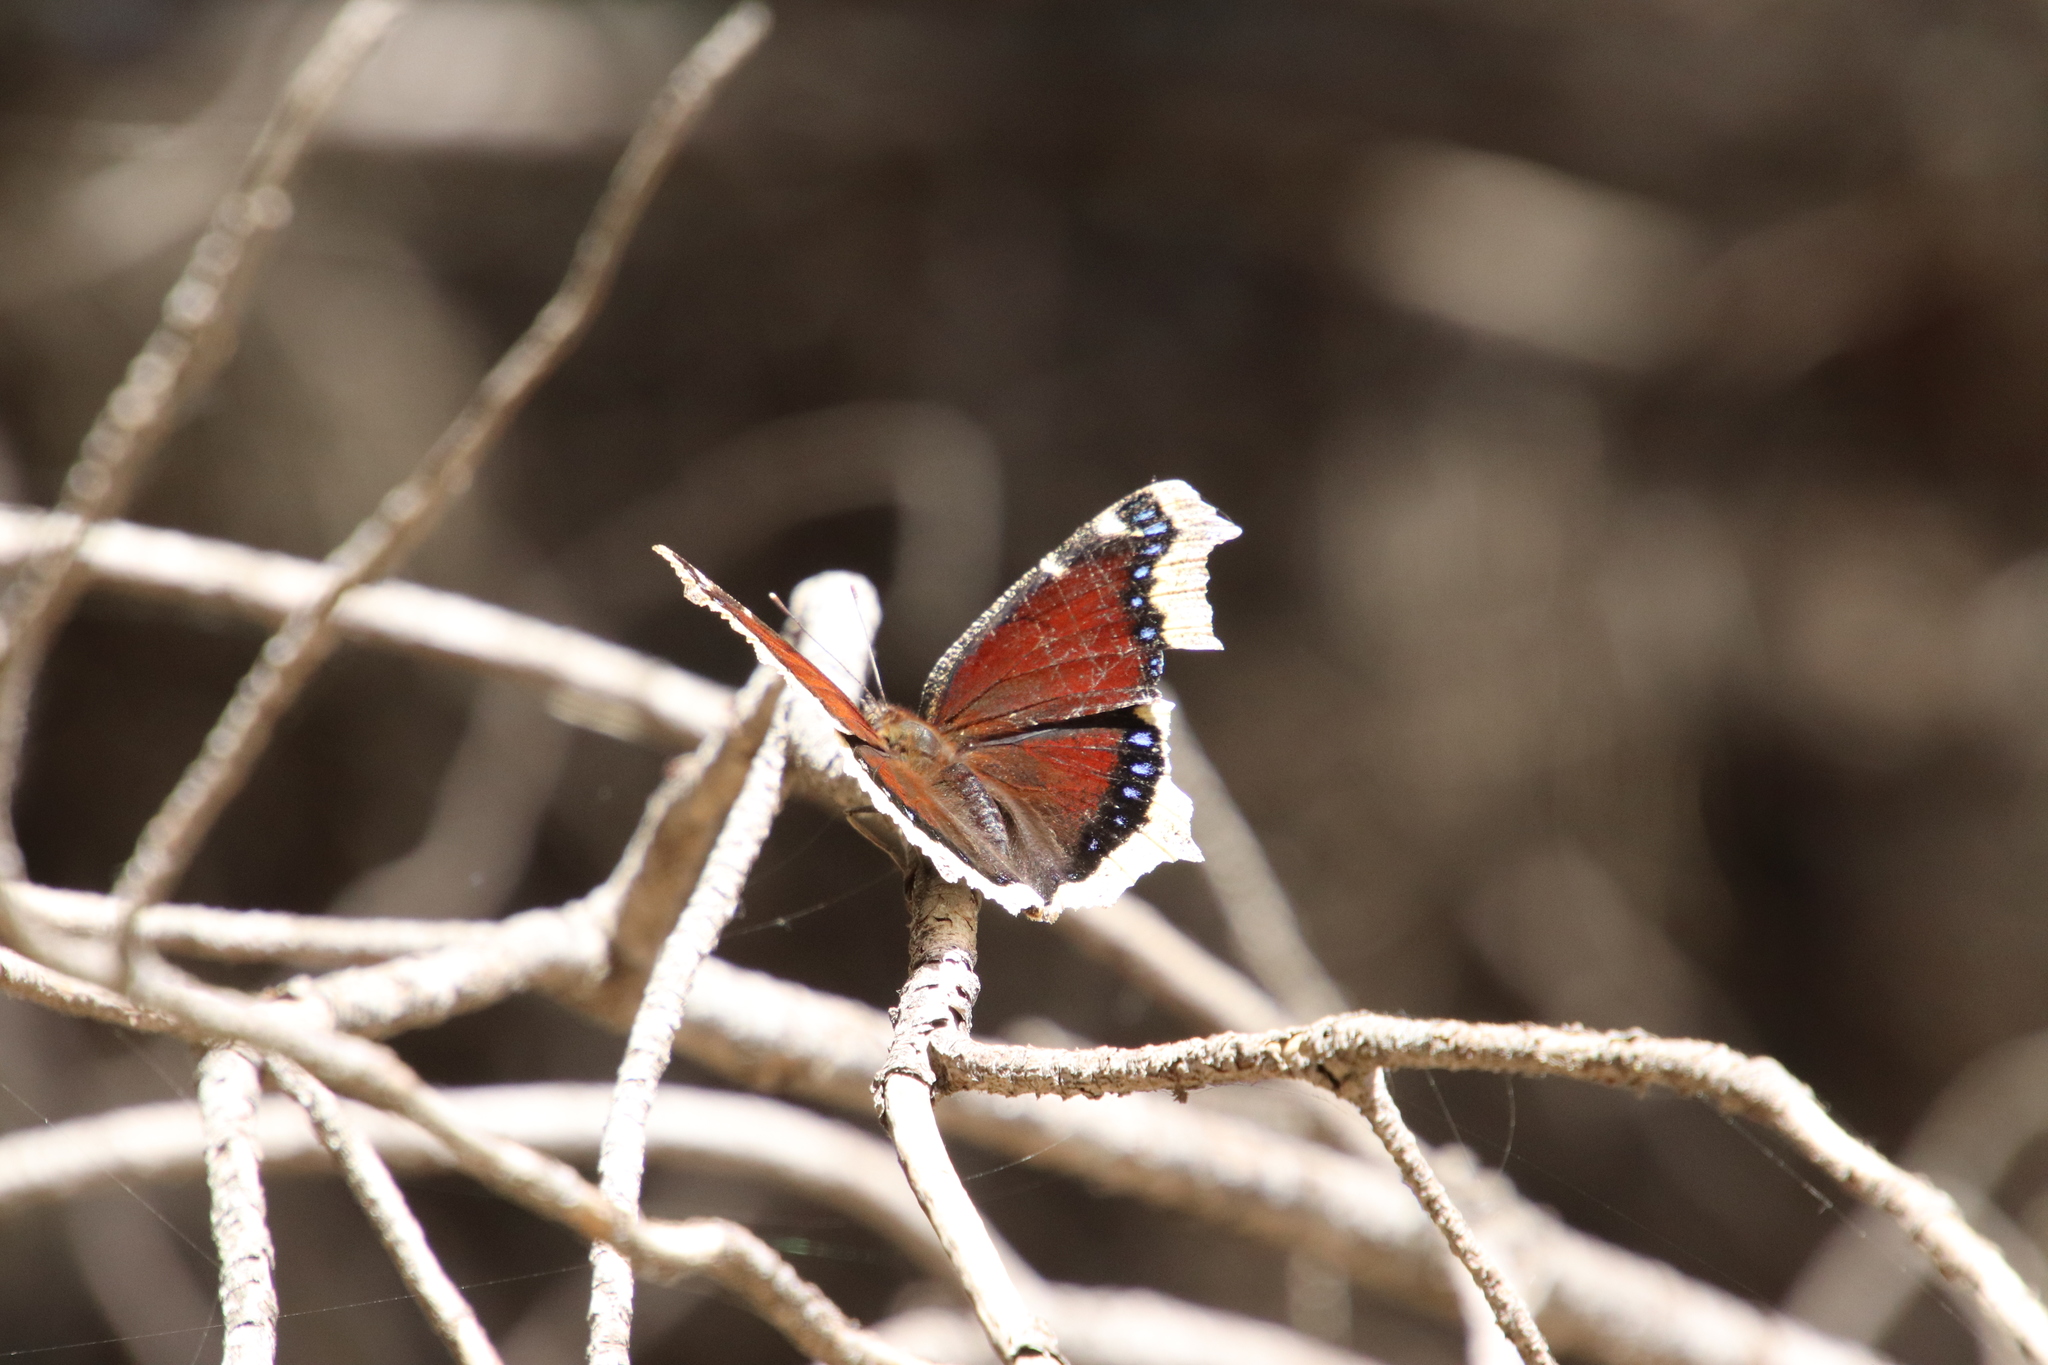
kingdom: Animalia
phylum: Arthropoda
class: Insecta
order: Lepidoptera
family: Nymphalidae
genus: Nymphalis
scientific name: Nymphalis antiopa
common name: Camberwell beauty
